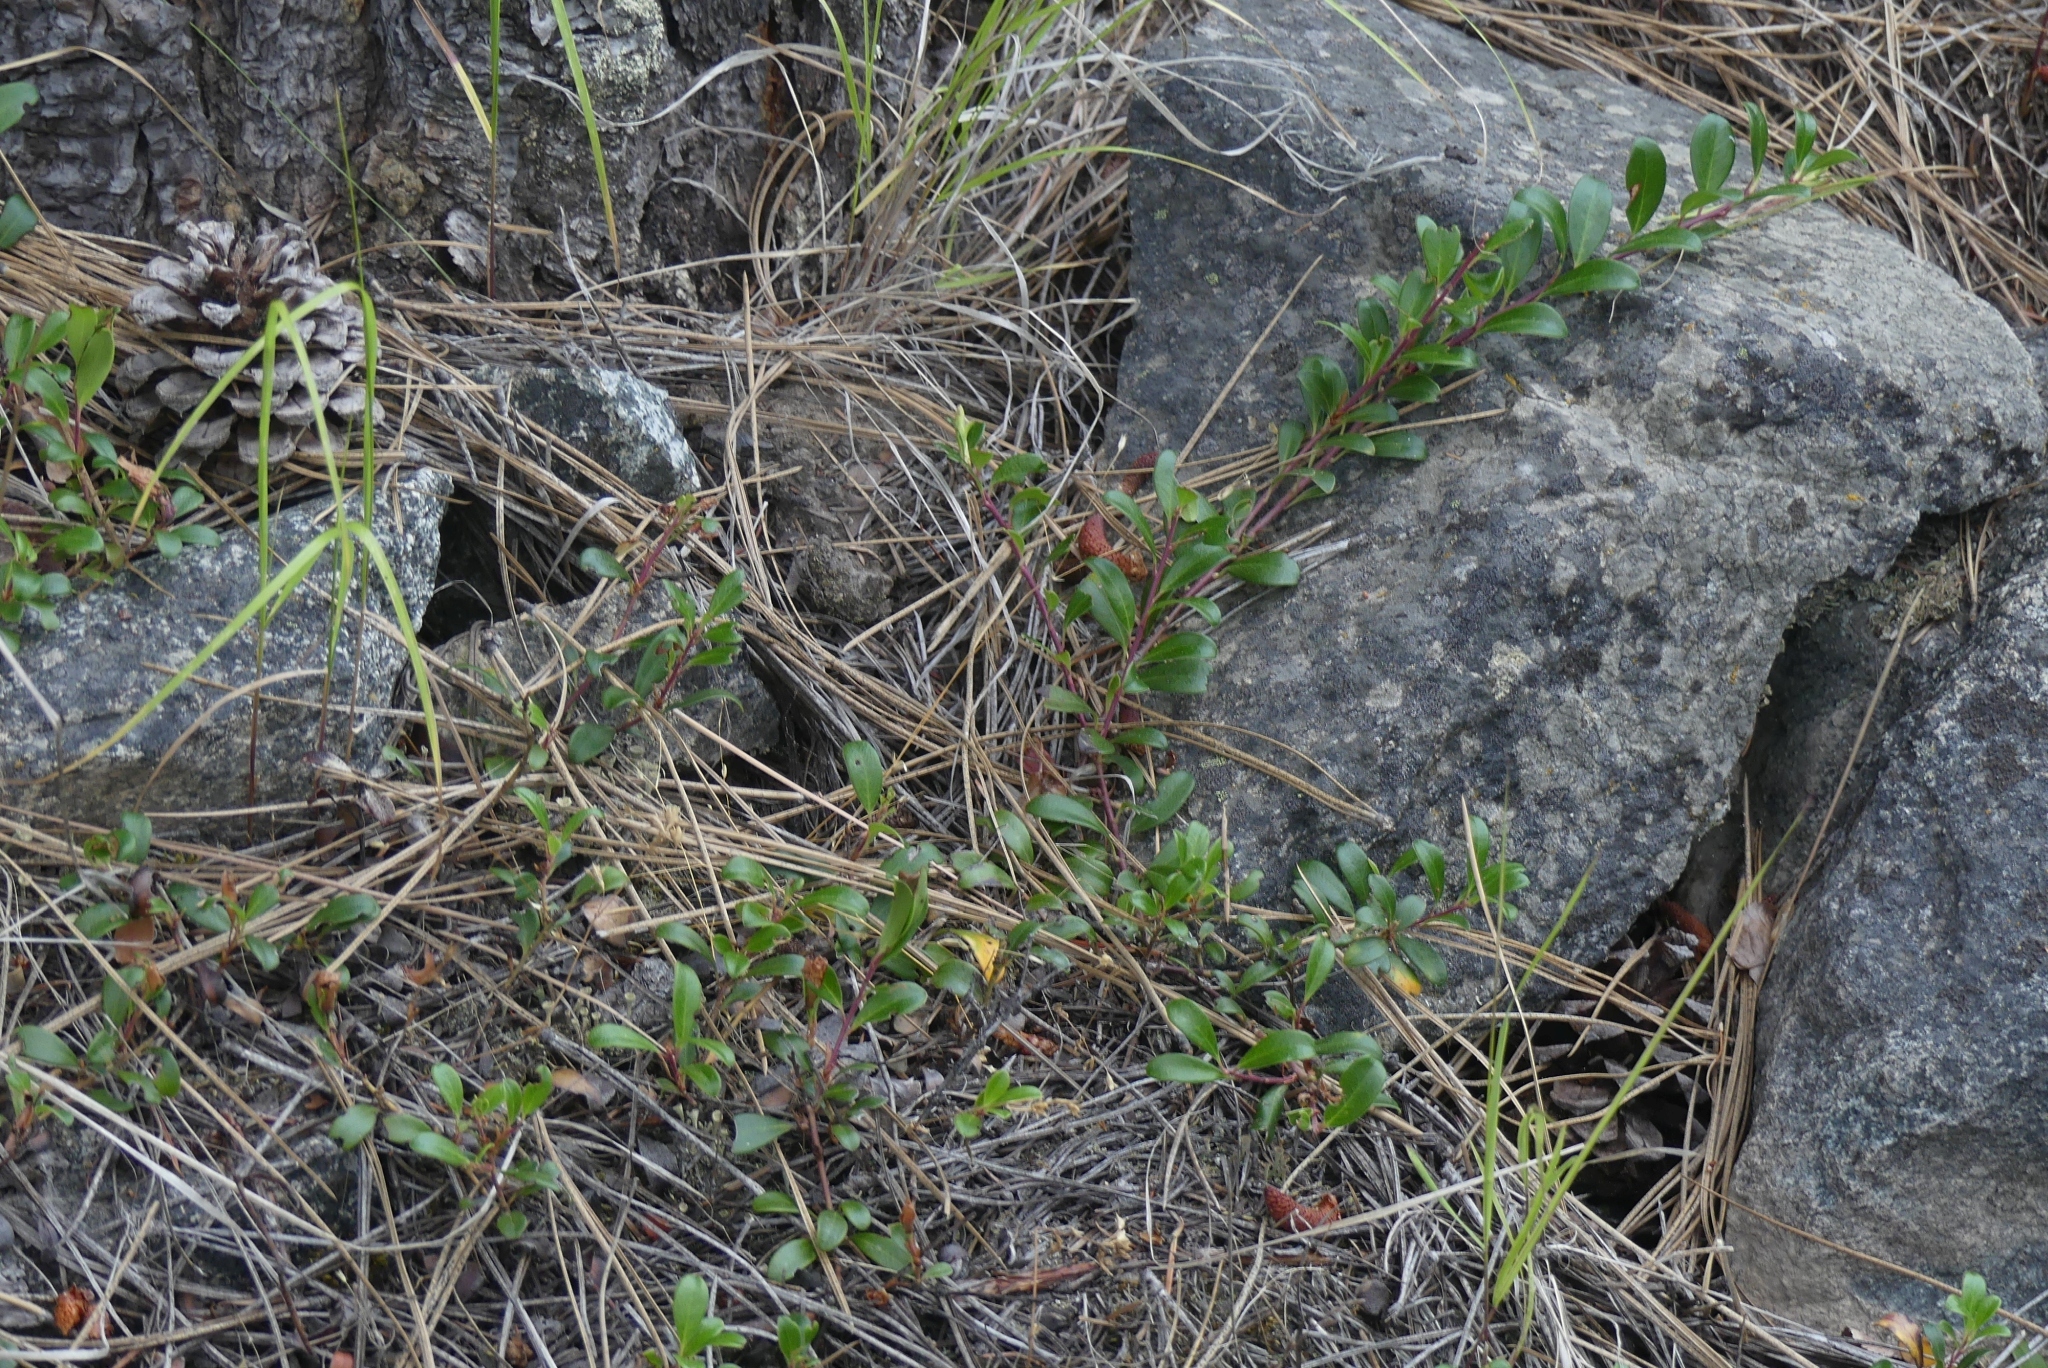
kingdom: Plantae
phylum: Tracheophyta
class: Magnoliopsida
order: Ericales
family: Ericaceae
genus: Arctostaphylos
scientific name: Arctostaphylos uva-ursi
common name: Bearberry
